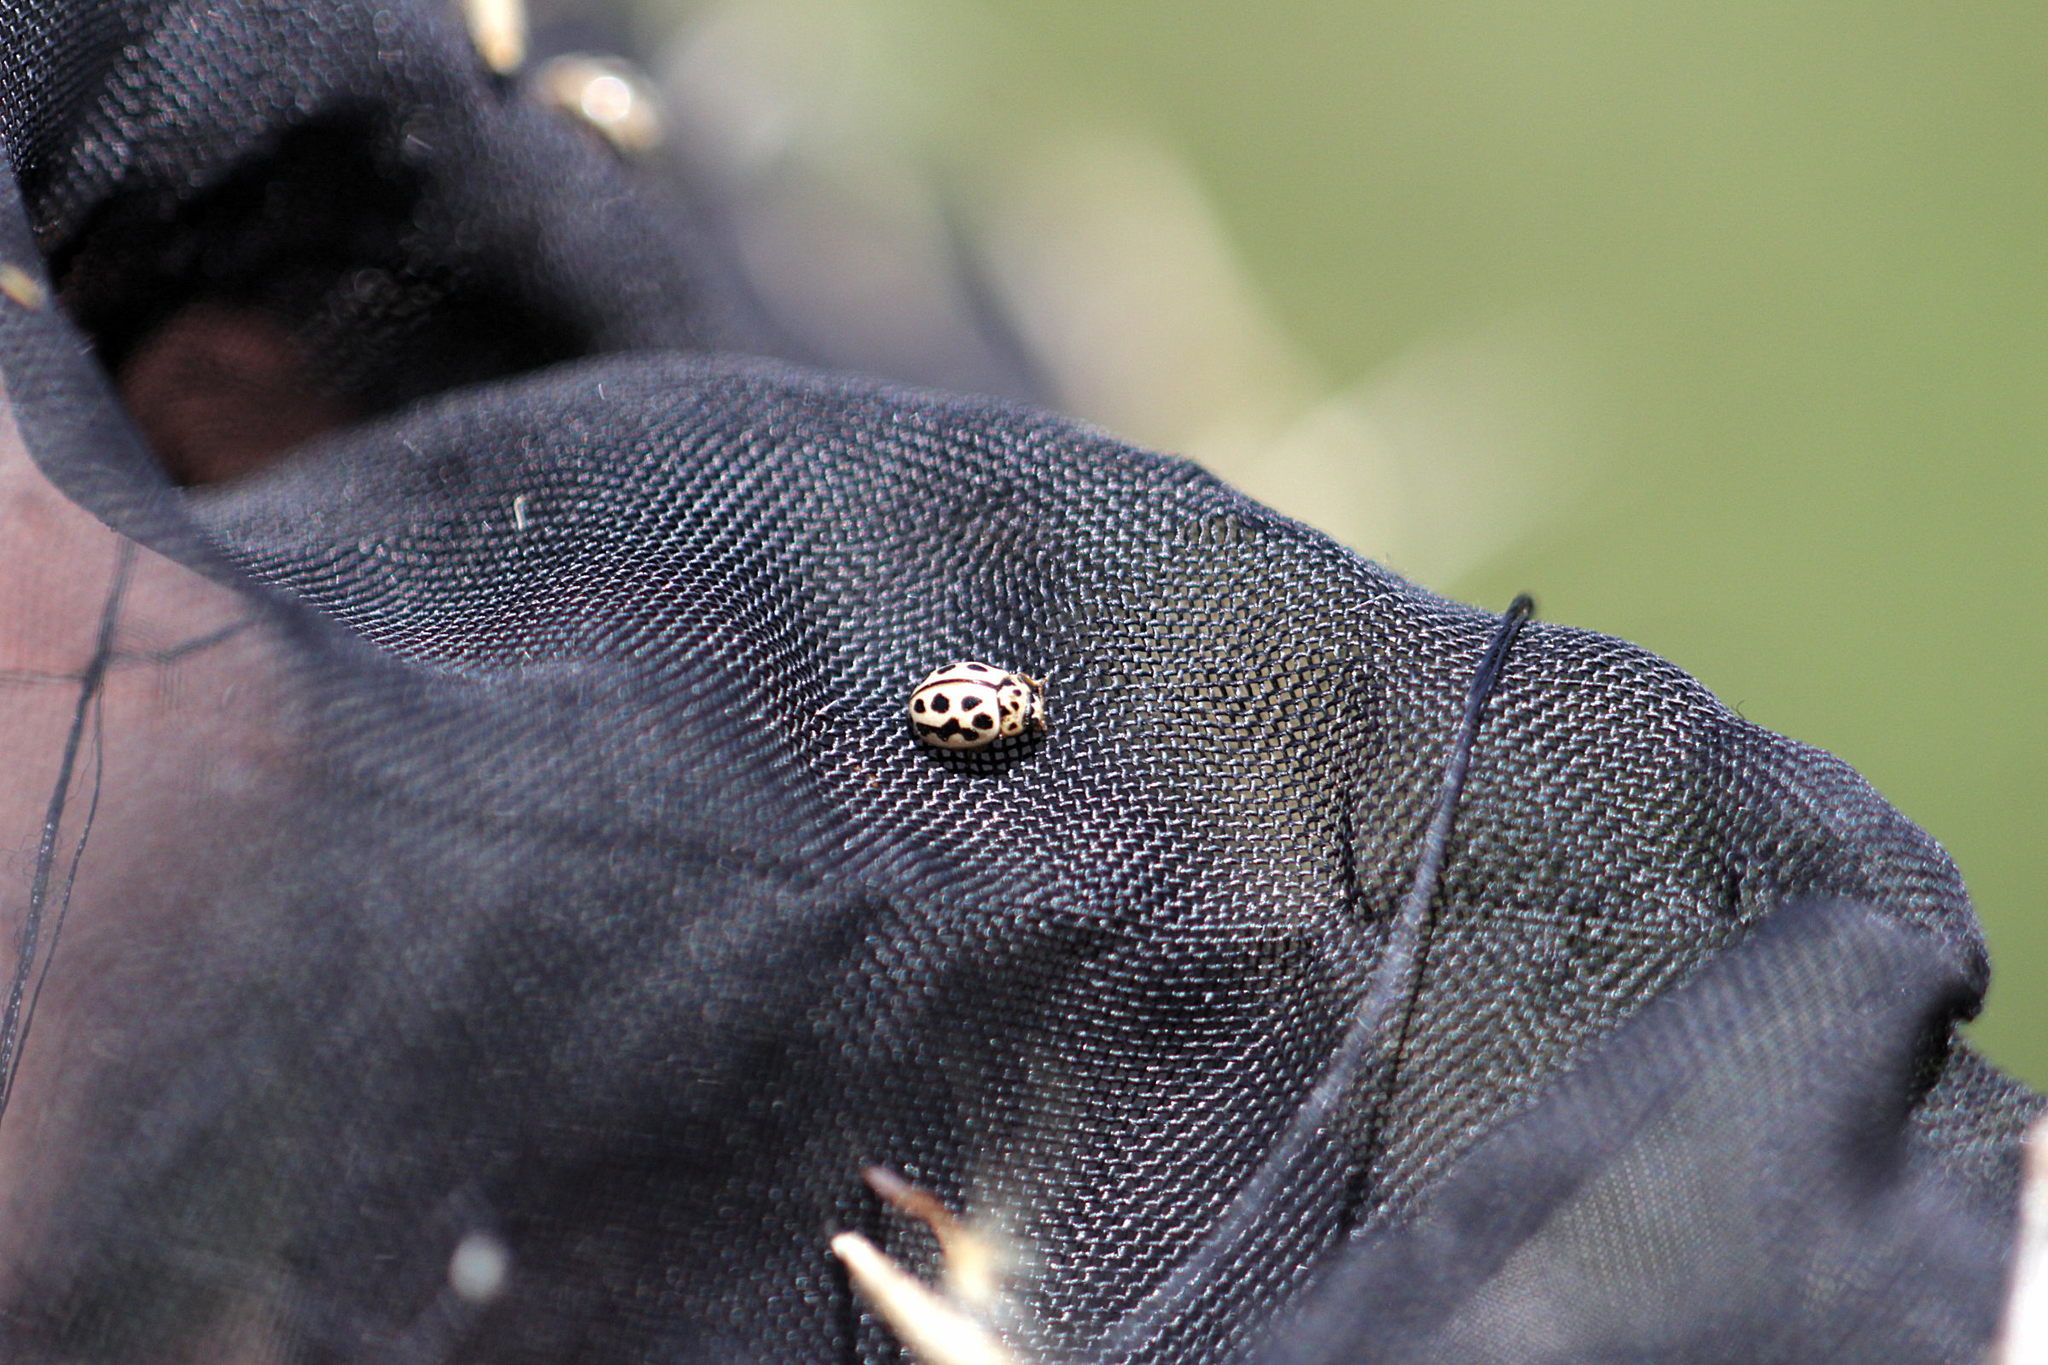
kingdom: Animalia
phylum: Arthropoda
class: Insecta
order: Coleoptera
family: Coccinellidae
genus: Tytthaspis
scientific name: Tytthaspis sedecimpunctata
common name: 16-spot ladybird
